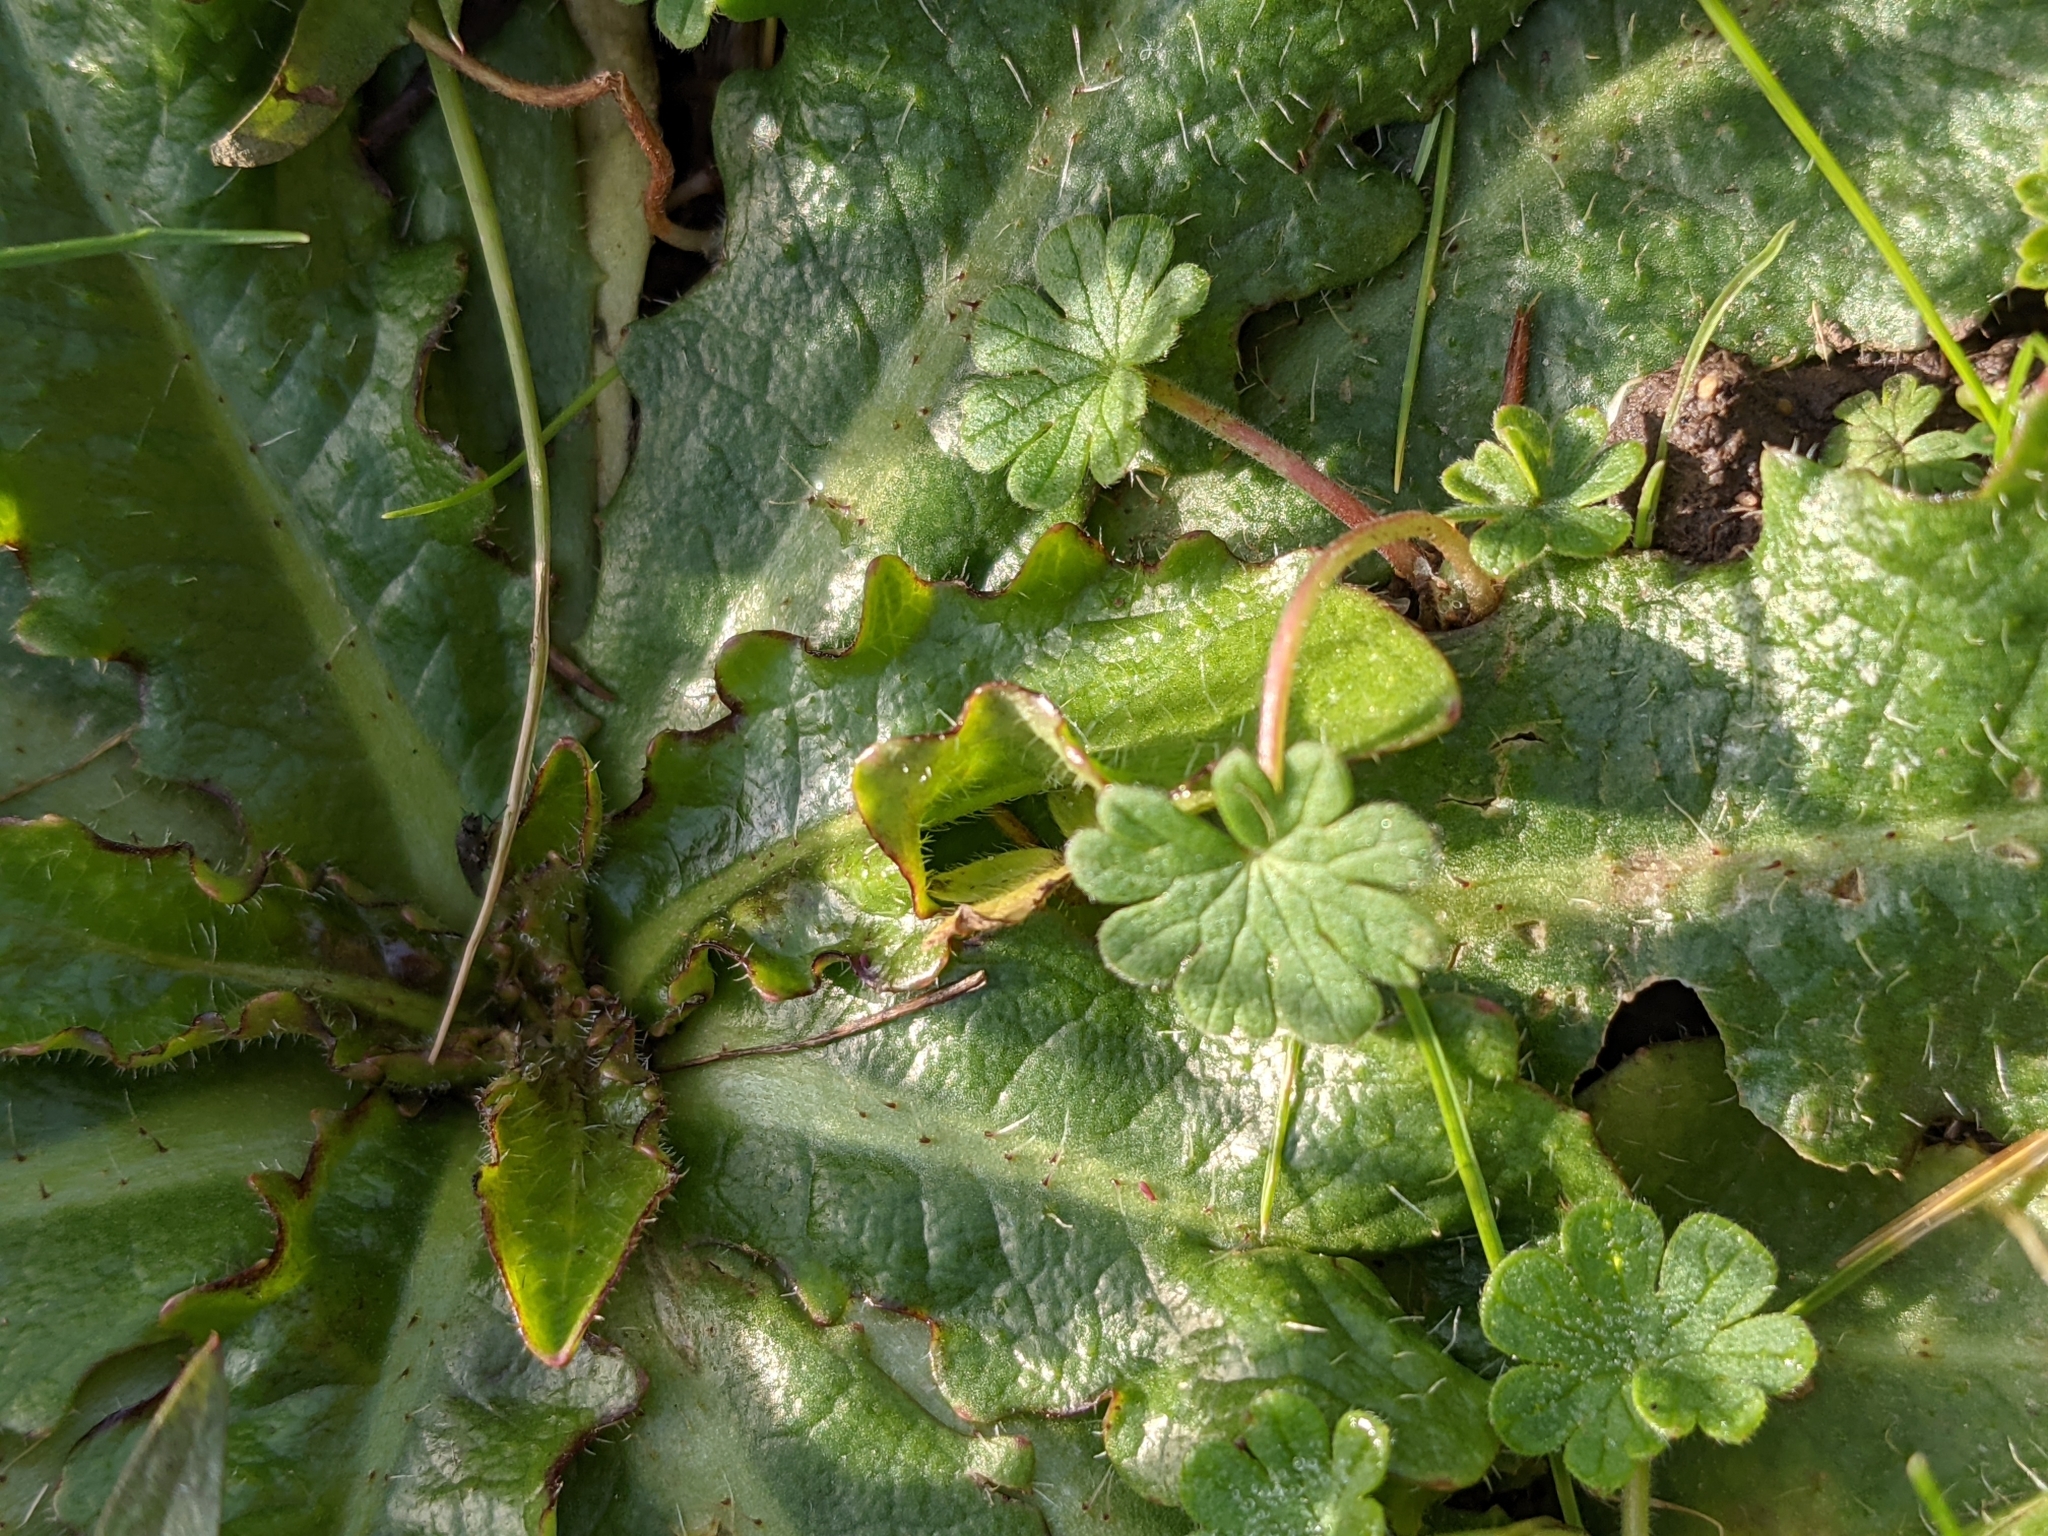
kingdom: Plantae
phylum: Tracheophyta
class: Magnoliopsida
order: Geraniales
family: Geraniaceae
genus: Geranium
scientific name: Geranium molle
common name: Dove's-foot crane's-bill
